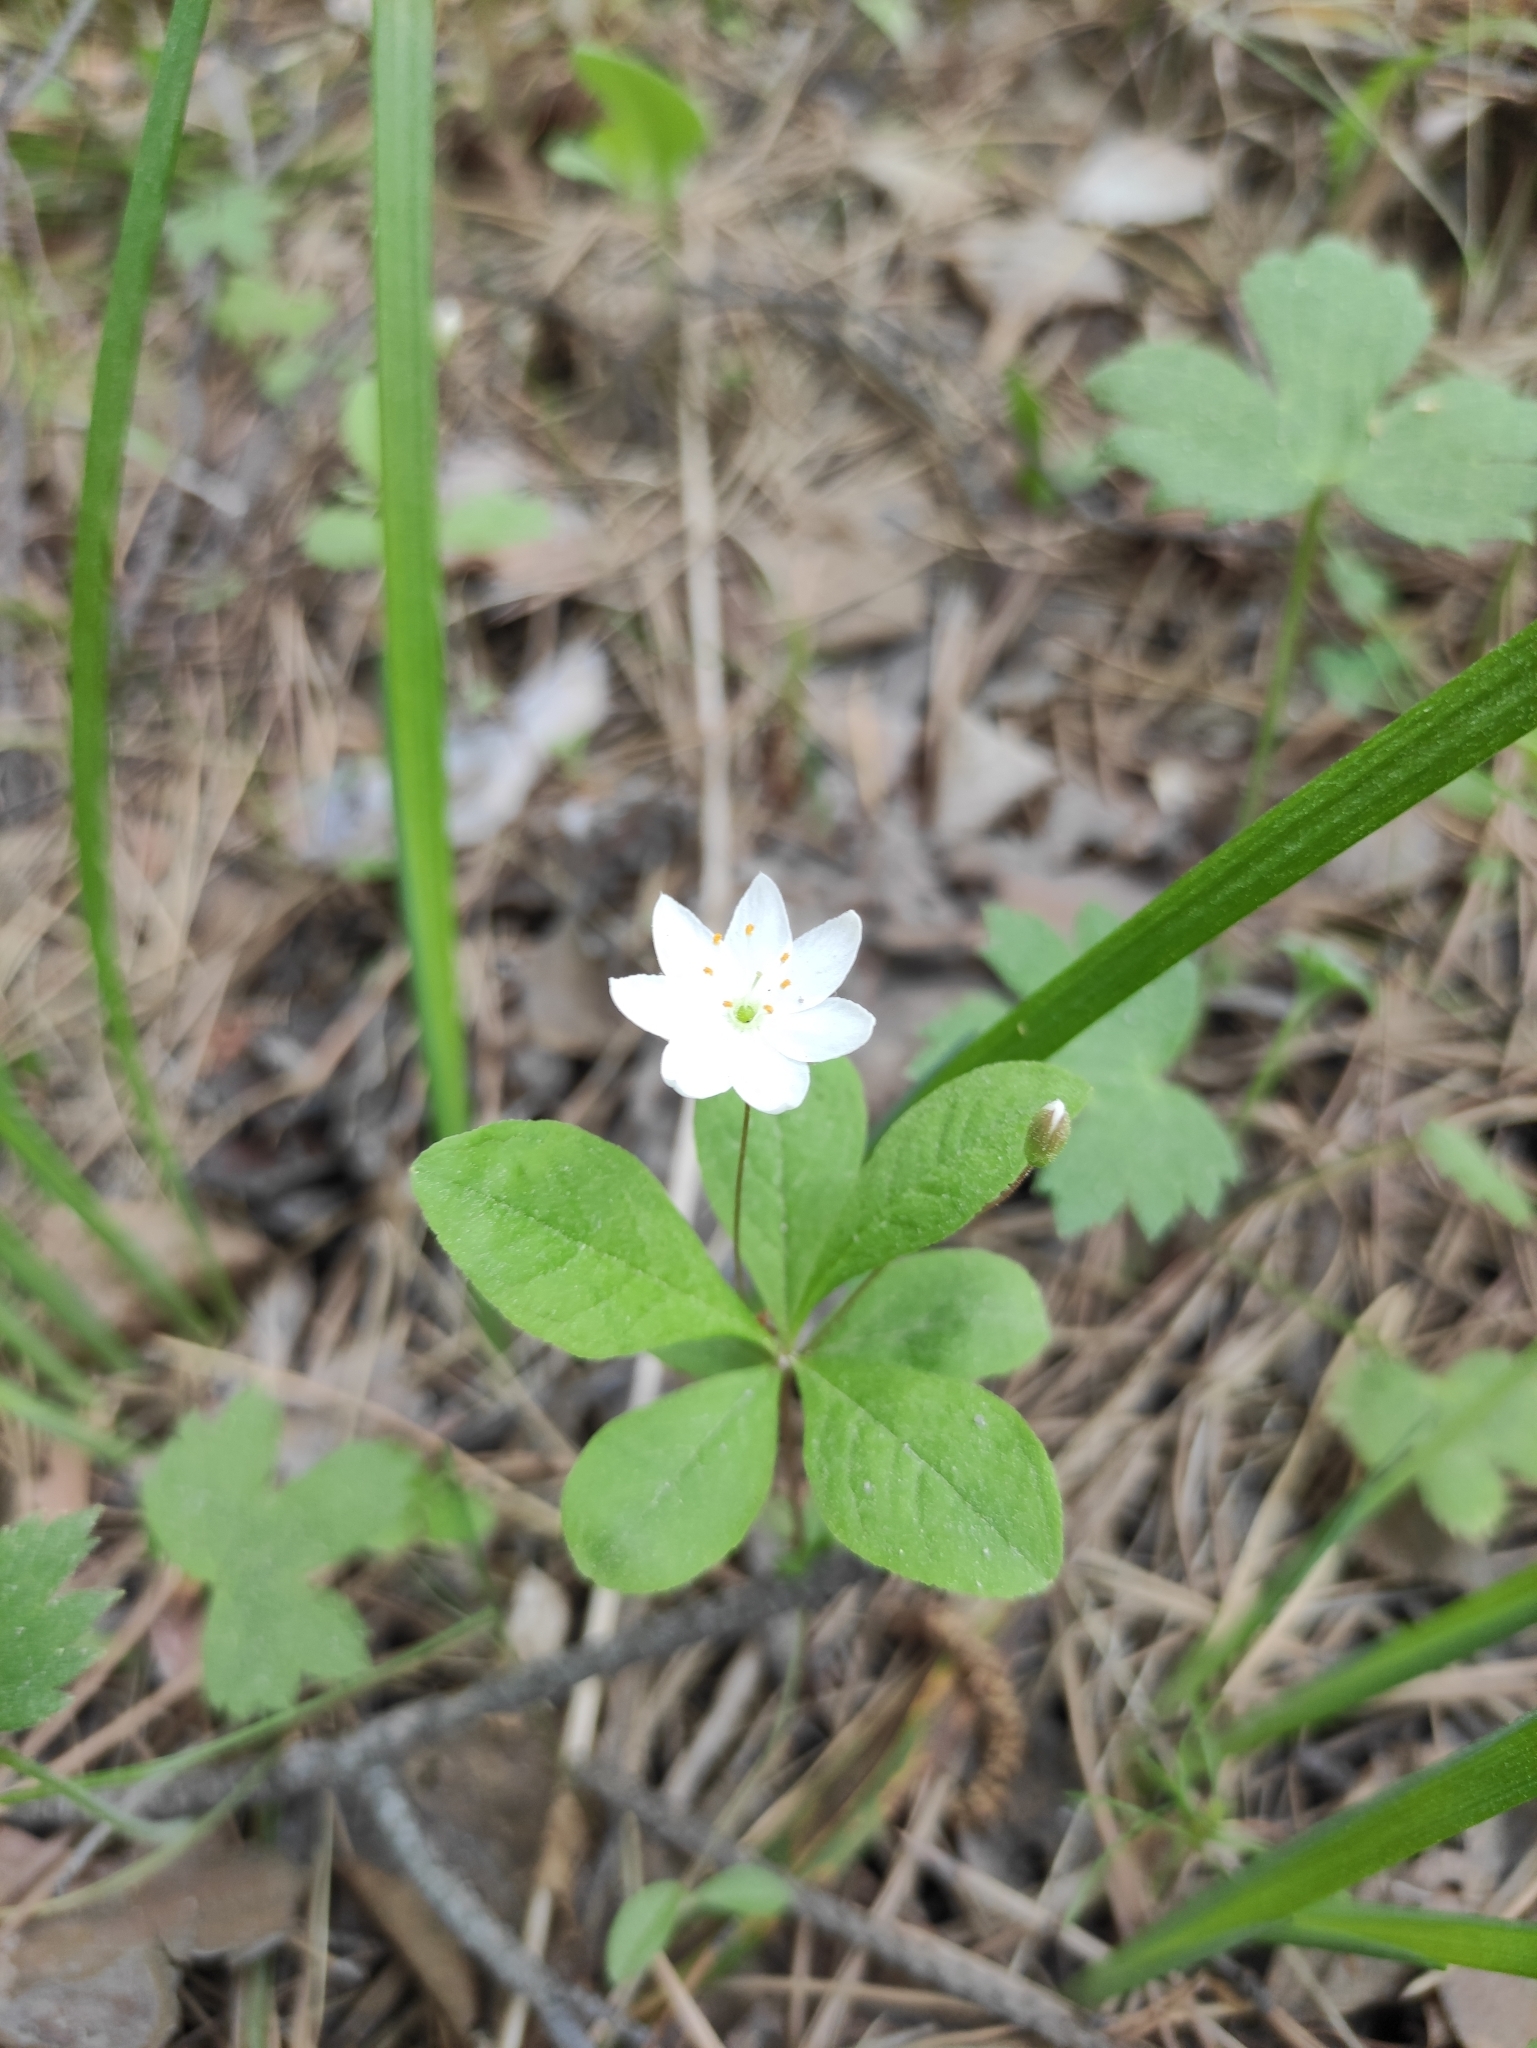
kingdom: Plantae
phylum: Tracheophyta
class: Magnoliopsida
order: Ericales
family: Primulaceae
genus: Lysimachia
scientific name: Lysimachia europaea
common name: Arctic starflower
